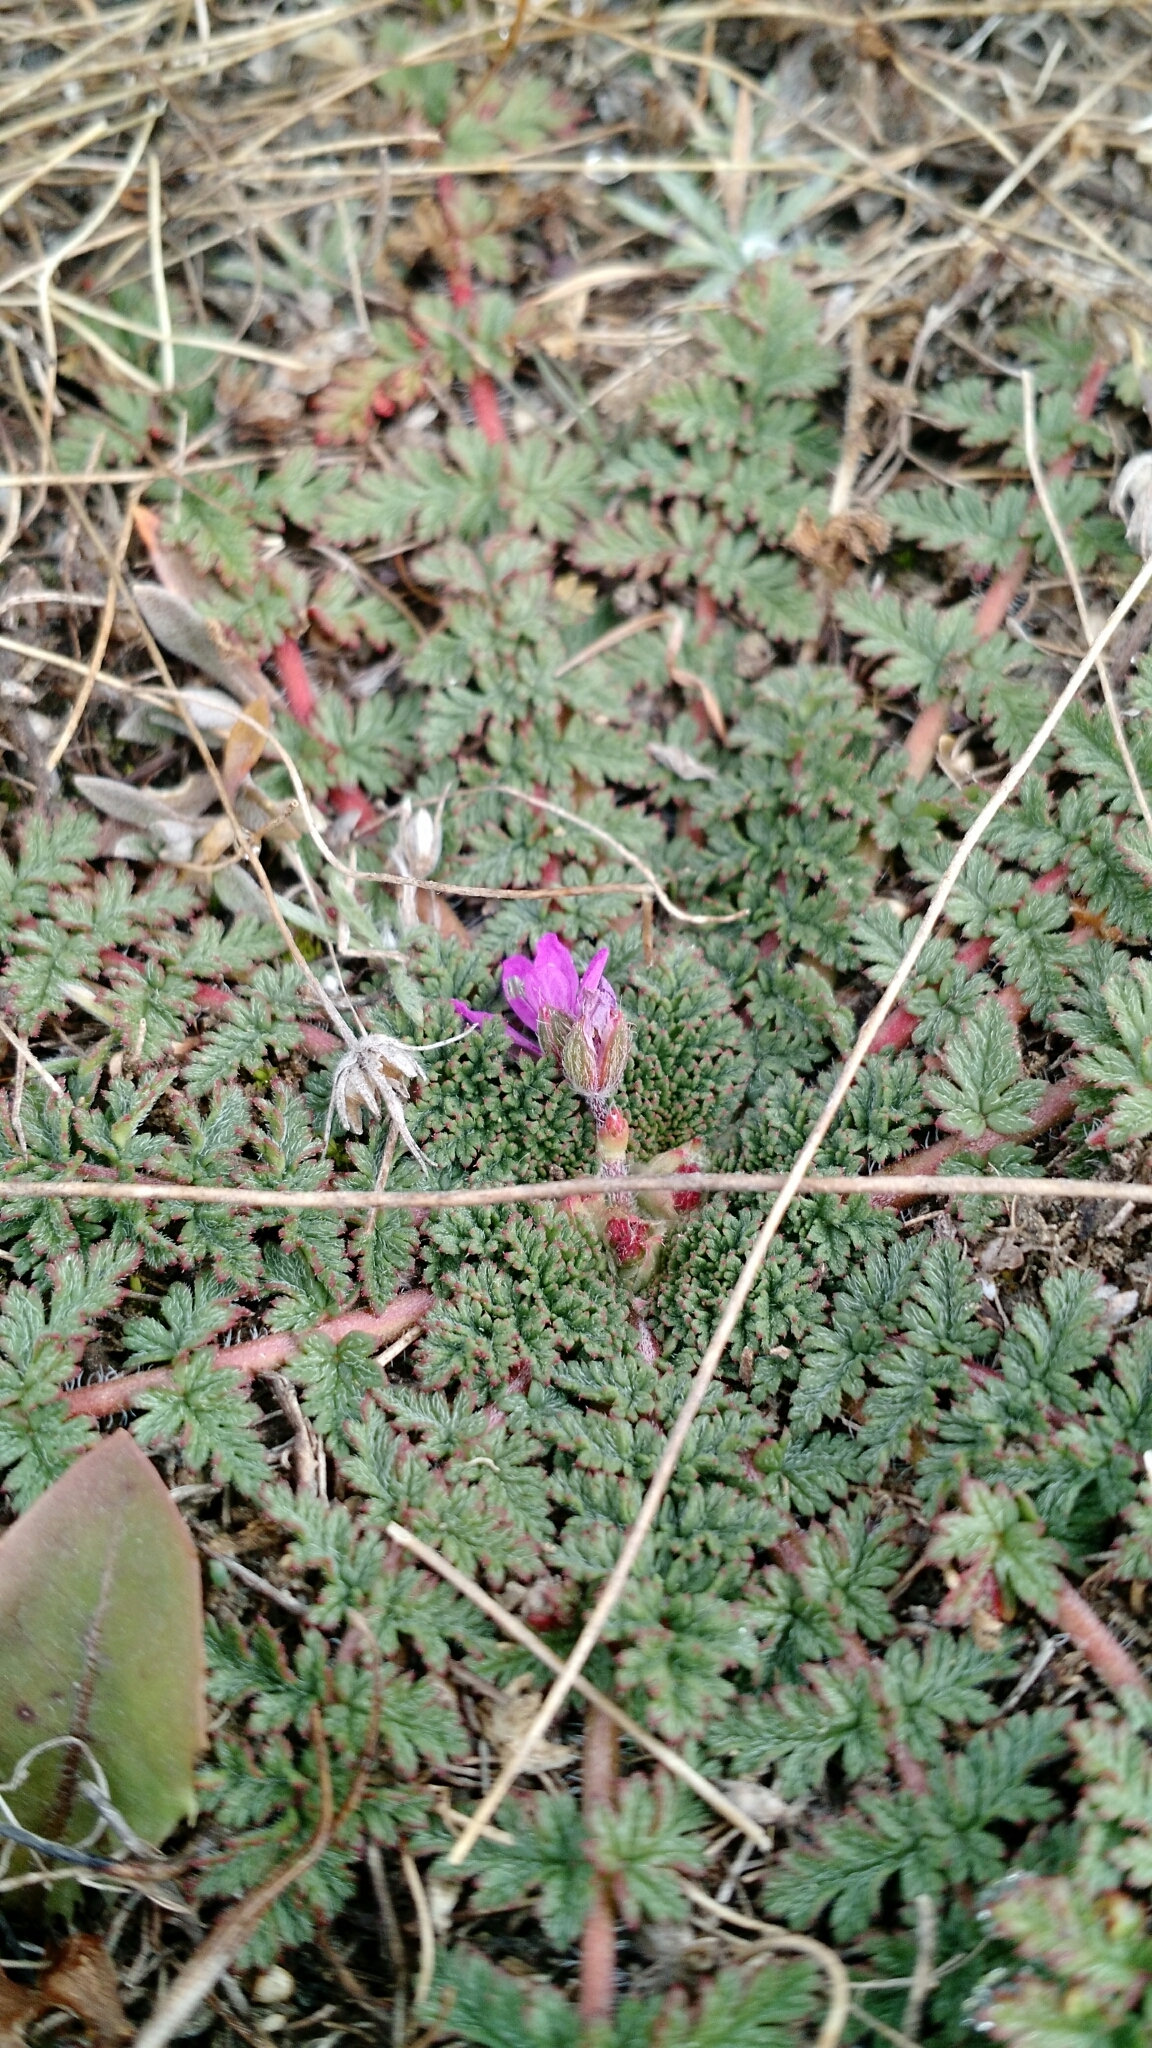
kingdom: Plantae
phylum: Tracheophyta
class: Magnoliopsida
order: Geraniales
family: Geraniaceae
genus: Erodium
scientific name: Erodium cicutarium
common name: Common stork's-bill
